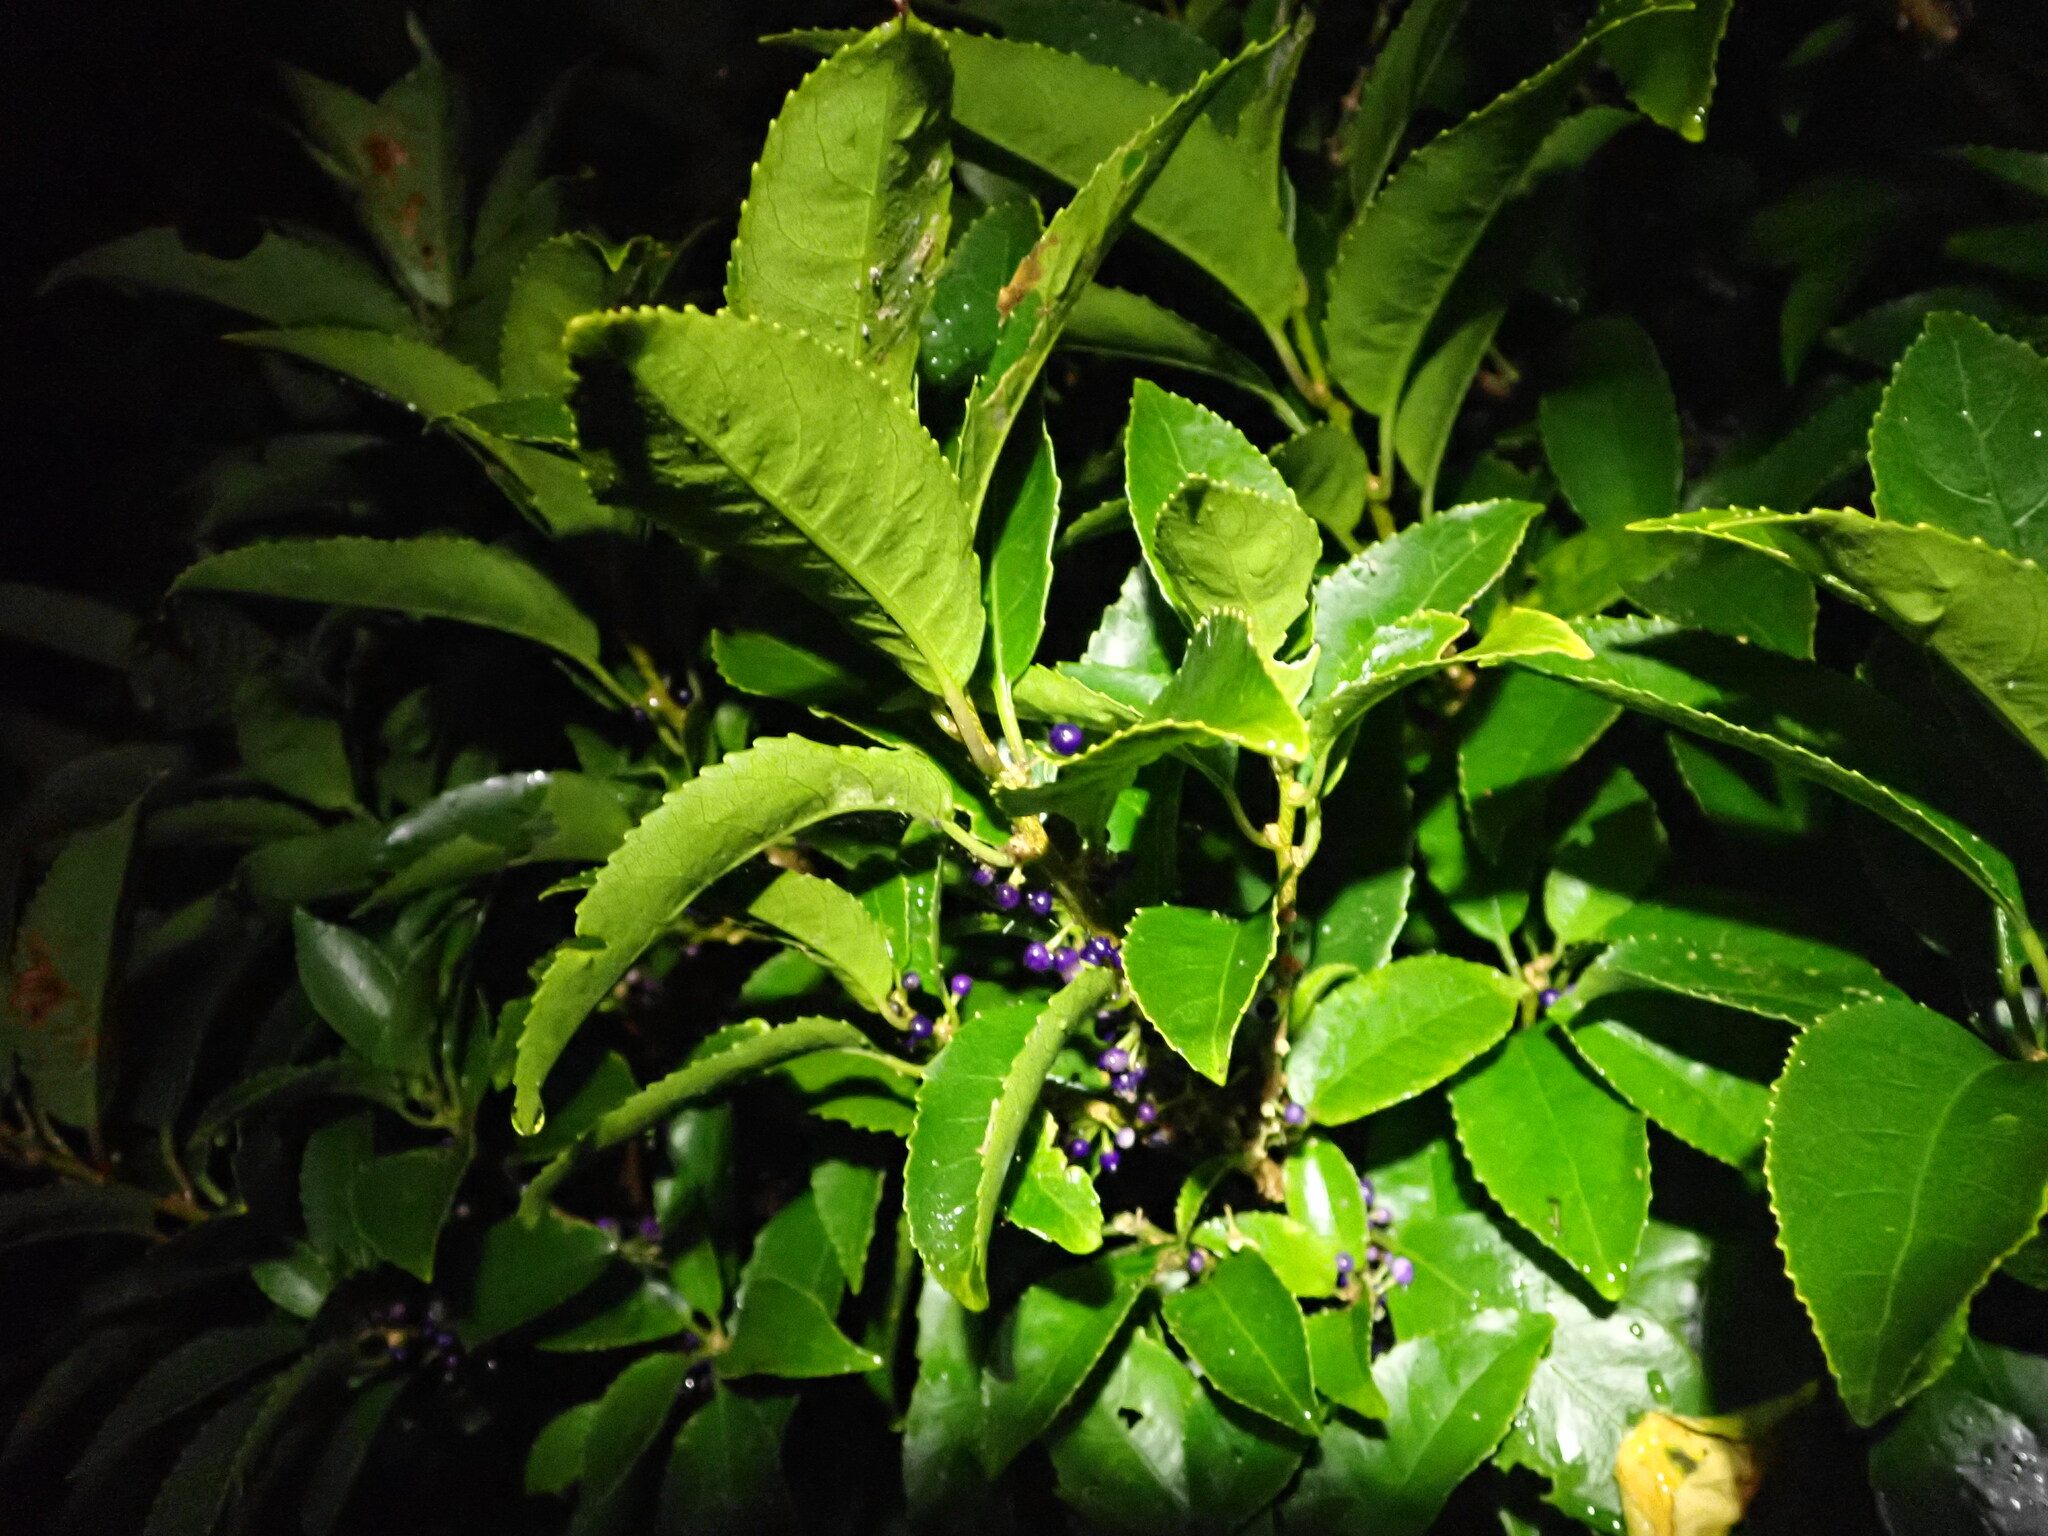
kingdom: Plantae
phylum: Tracheophyta
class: Magnoliopsida
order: Malpighiales
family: Violaceae
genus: Melicytus
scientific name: Melicytus ramiflorus
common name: Mahoe
